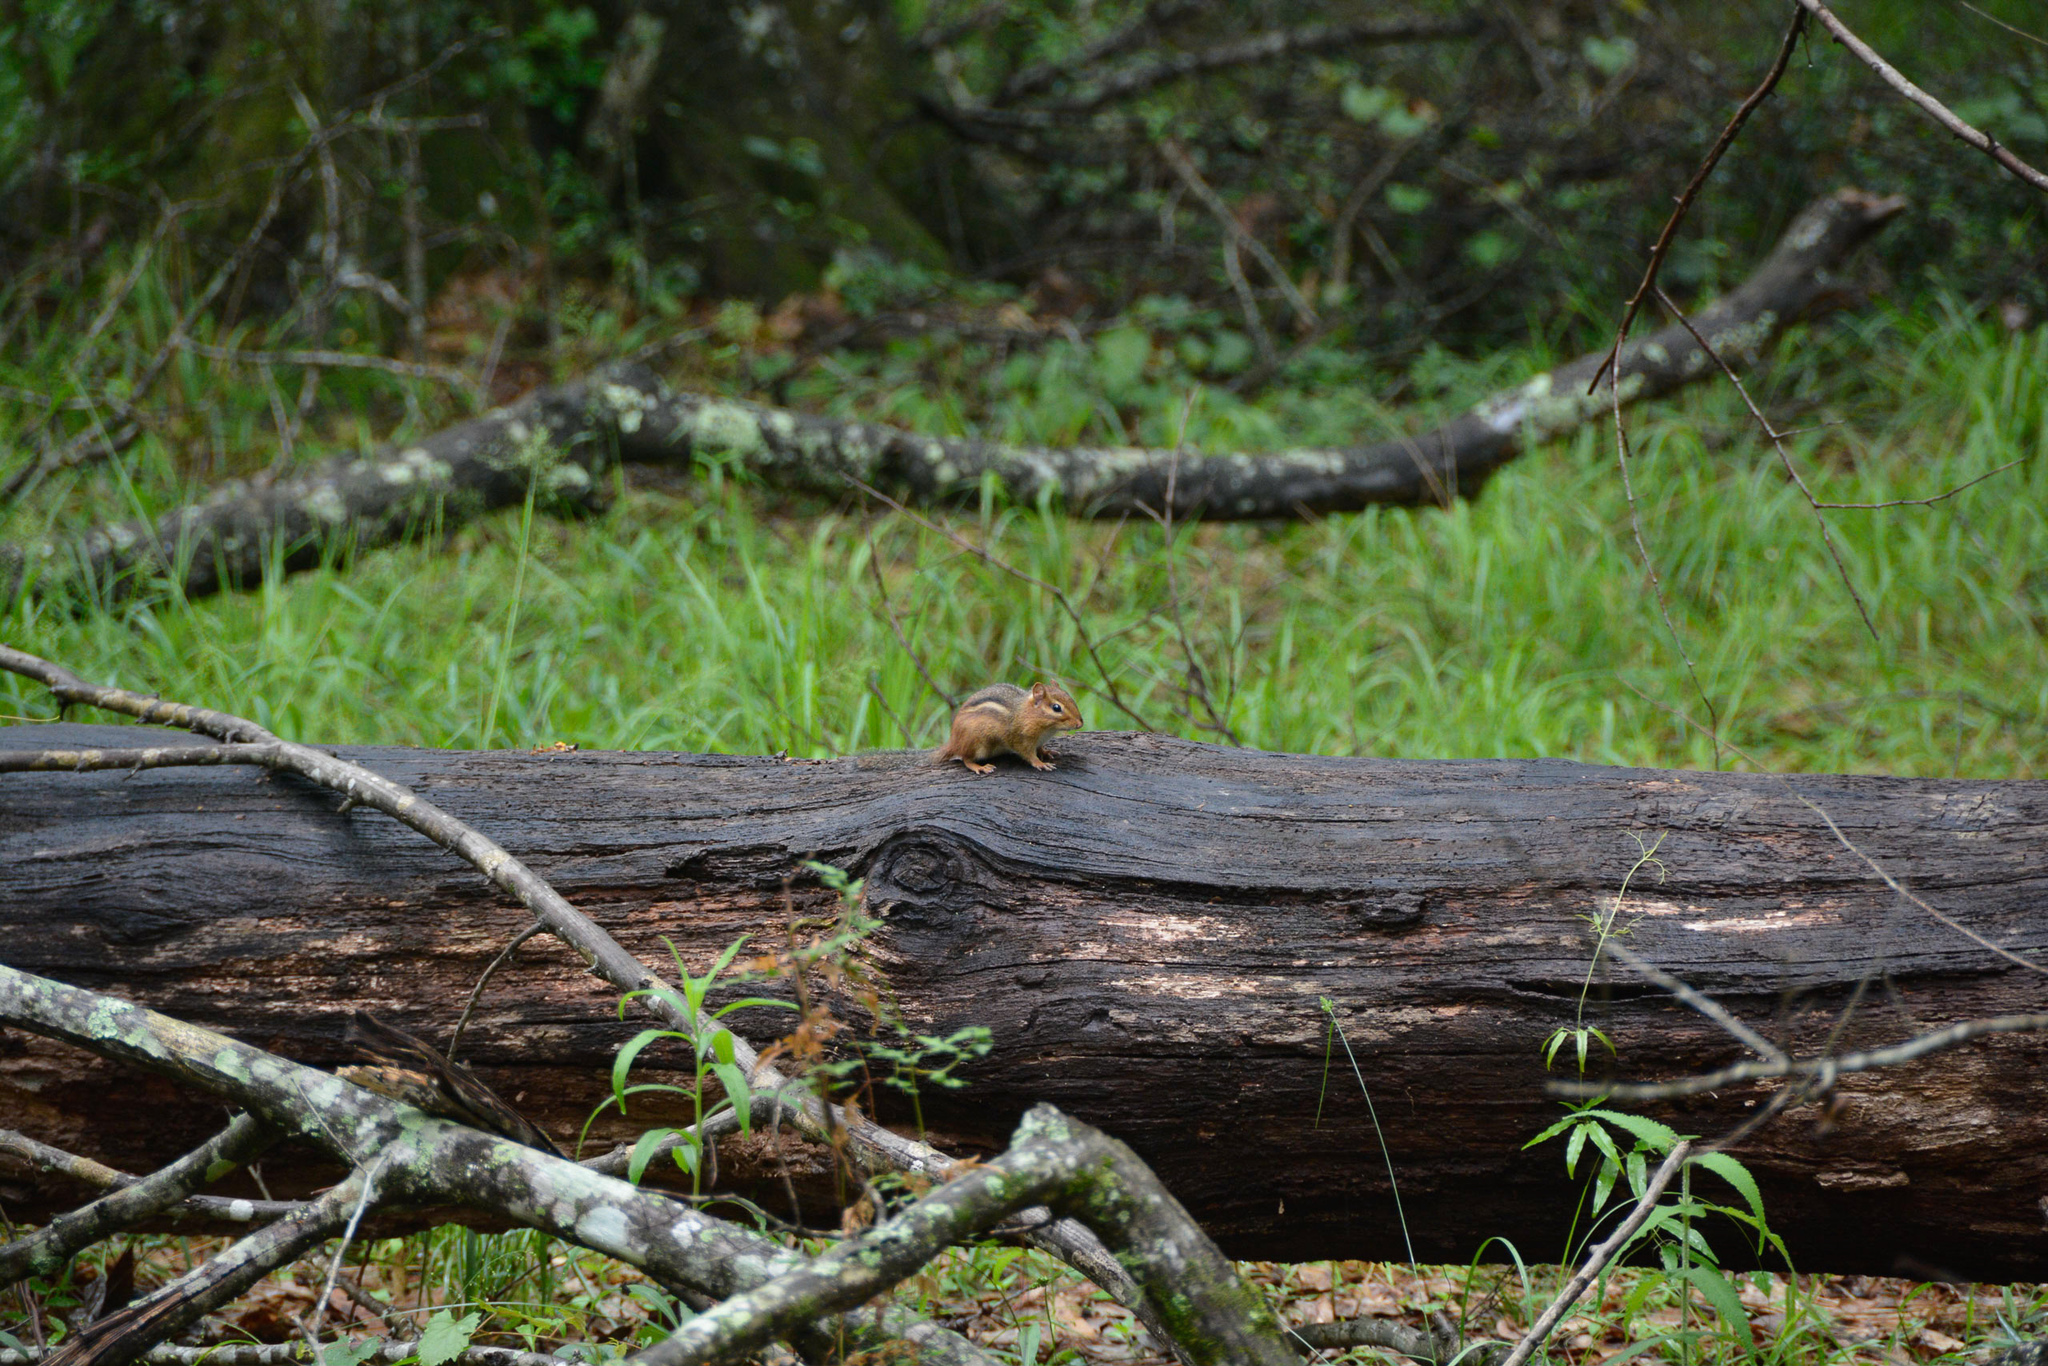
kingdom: Animalia
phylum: Chordata
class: Mammalia
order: Rodentia
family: Sciuridae
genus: Tamias
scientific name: Tamias striatus
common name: Eastern chipmunk
